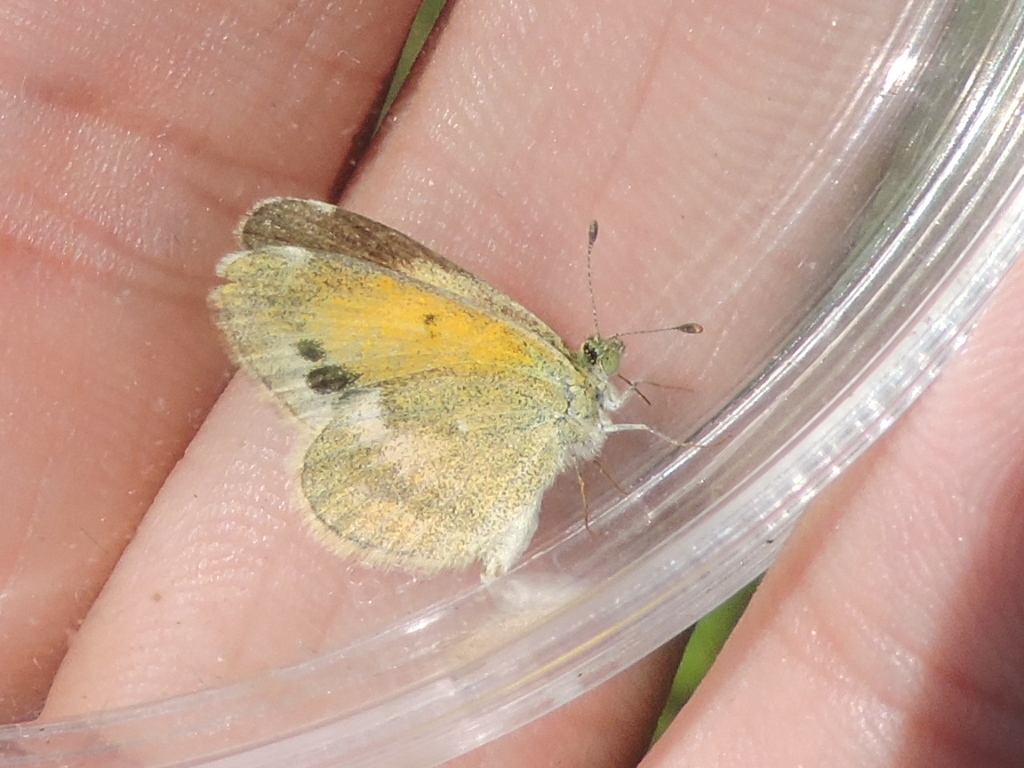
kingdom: Animalia
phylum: Arthropoda
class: Insecta
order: Lepidoptera
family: Pieridae
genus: Nathalis
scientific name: Nathalis iole
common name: Dainty sulphur
